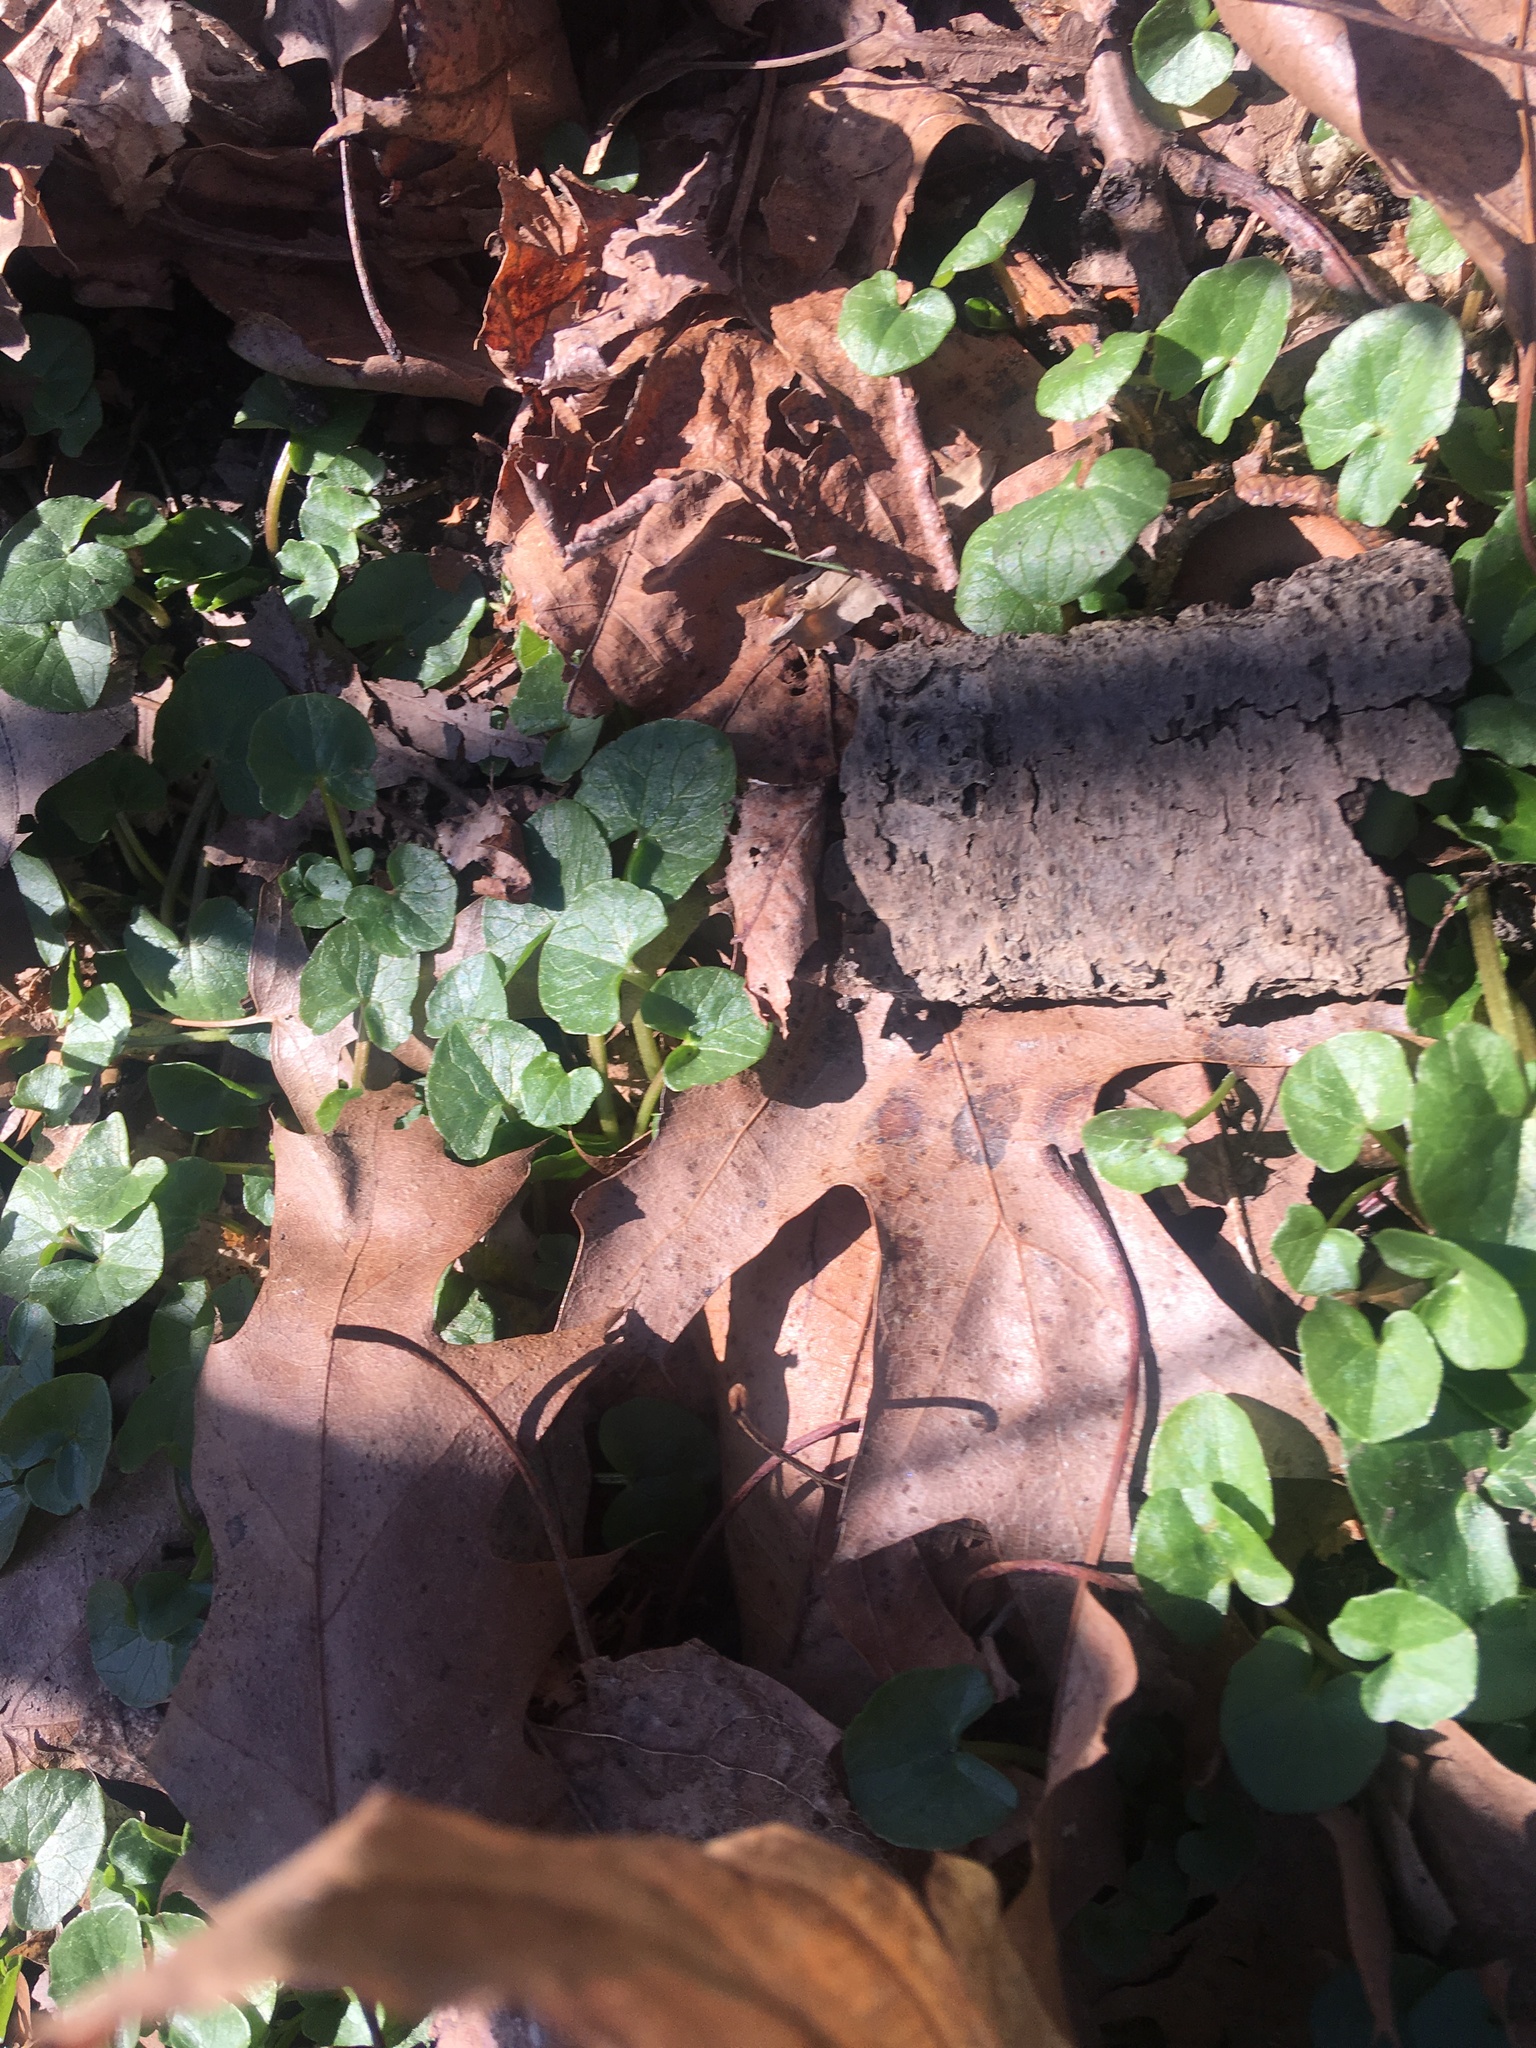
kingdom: Plantae
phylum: Tracheophyta
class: Magnoliopsida
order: Ranunculales
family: Ranunculaceae
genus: Ficaria
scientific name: Ficaria verna
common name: Lesser celandine
